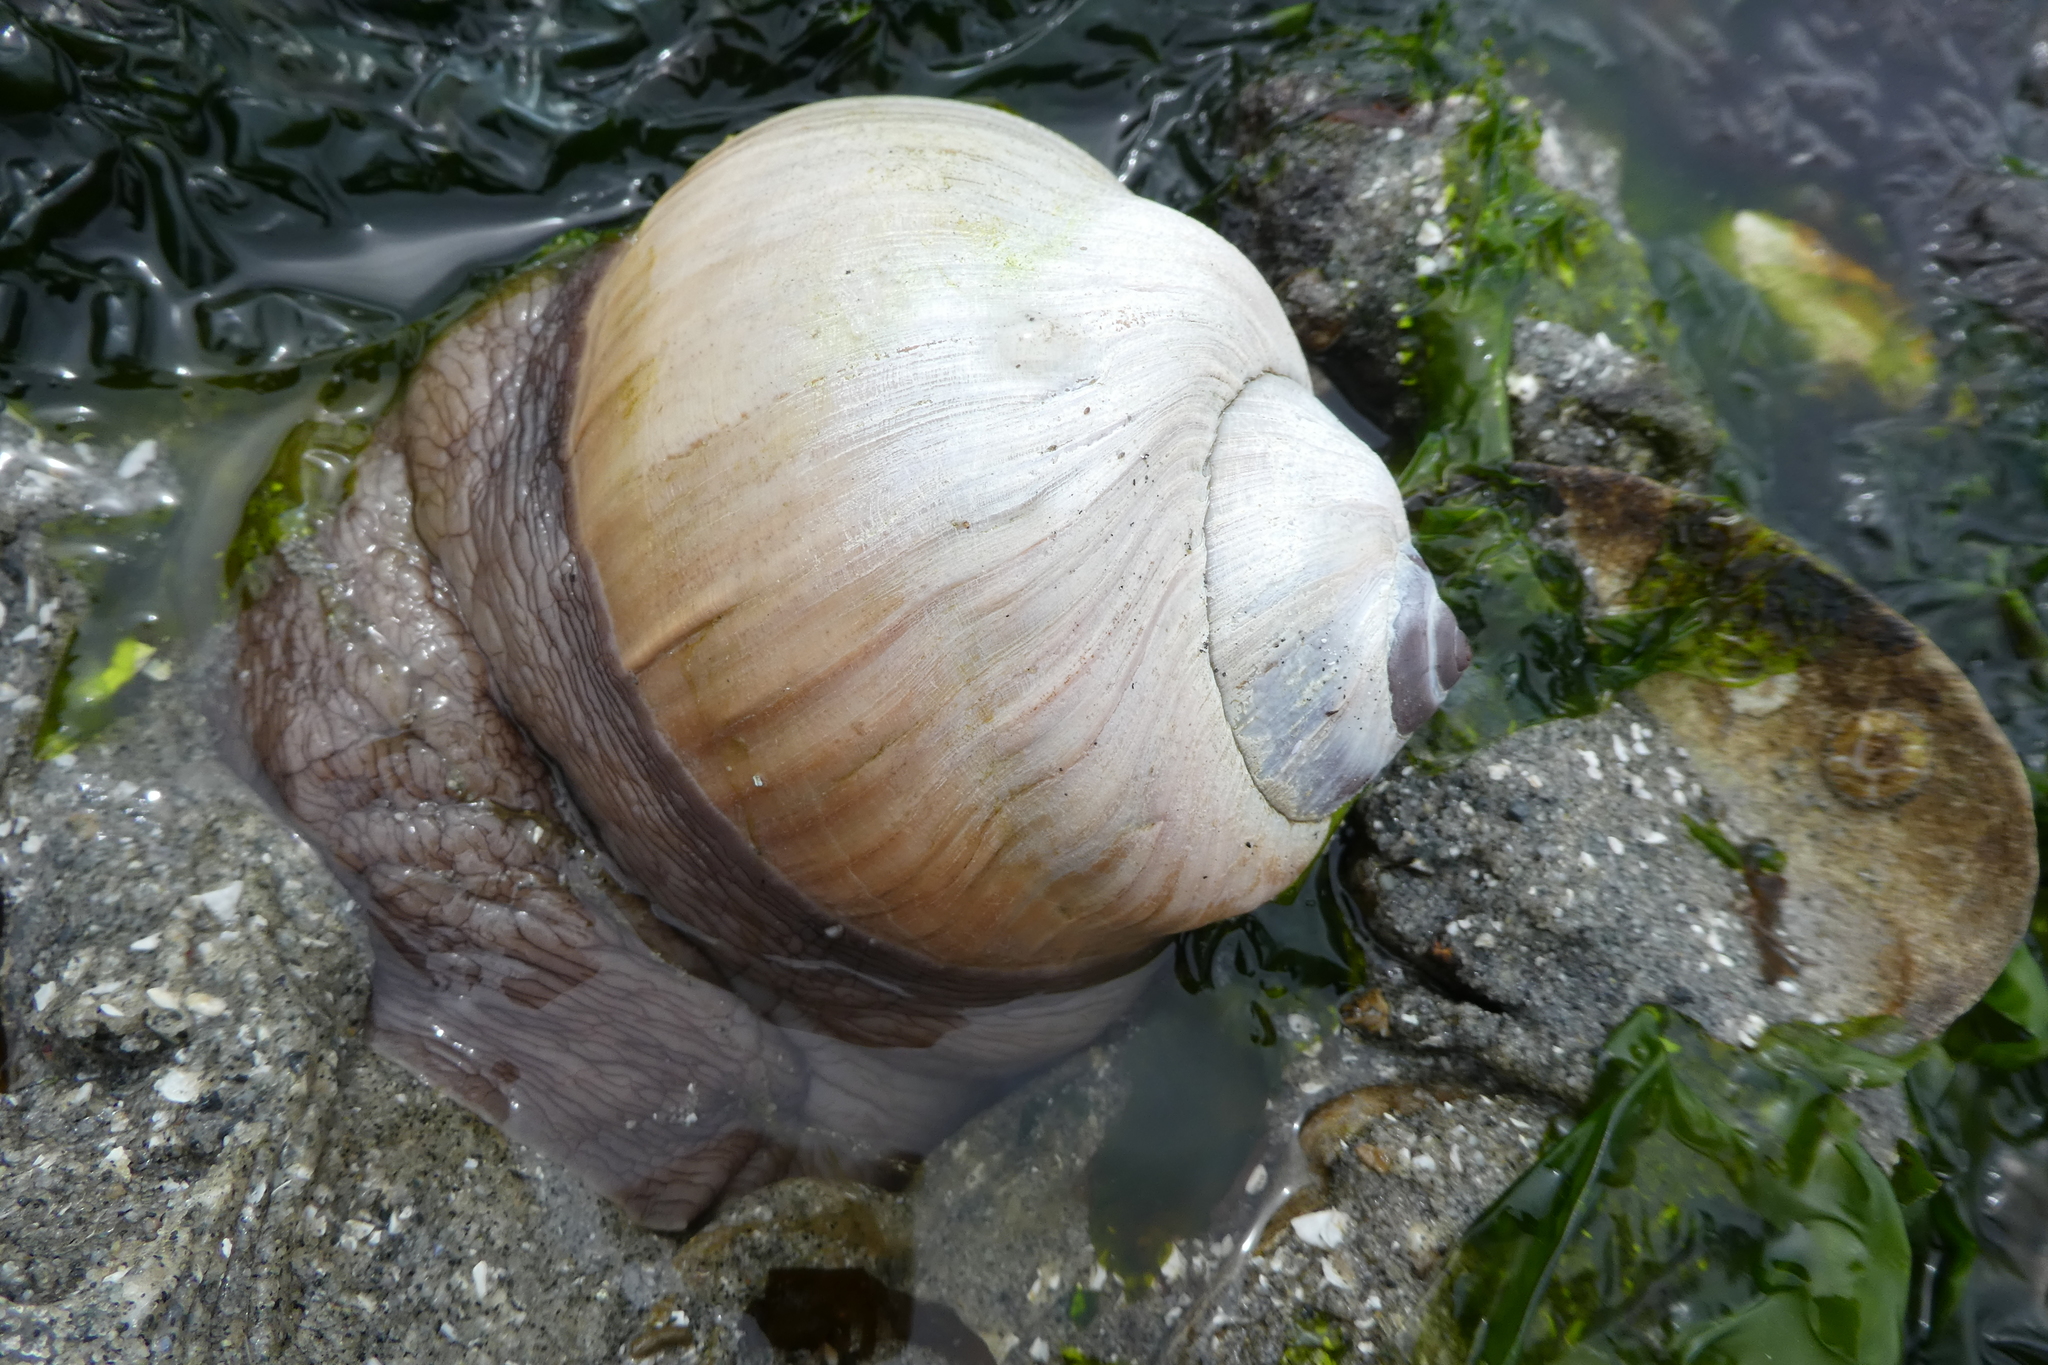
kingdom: Animalia
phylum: Mollusca
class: Gastropoda
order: Littorinimorpha
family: Naticidae
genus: Neverita
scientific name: Neverita lewisii
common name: Lewis' moonsnail
